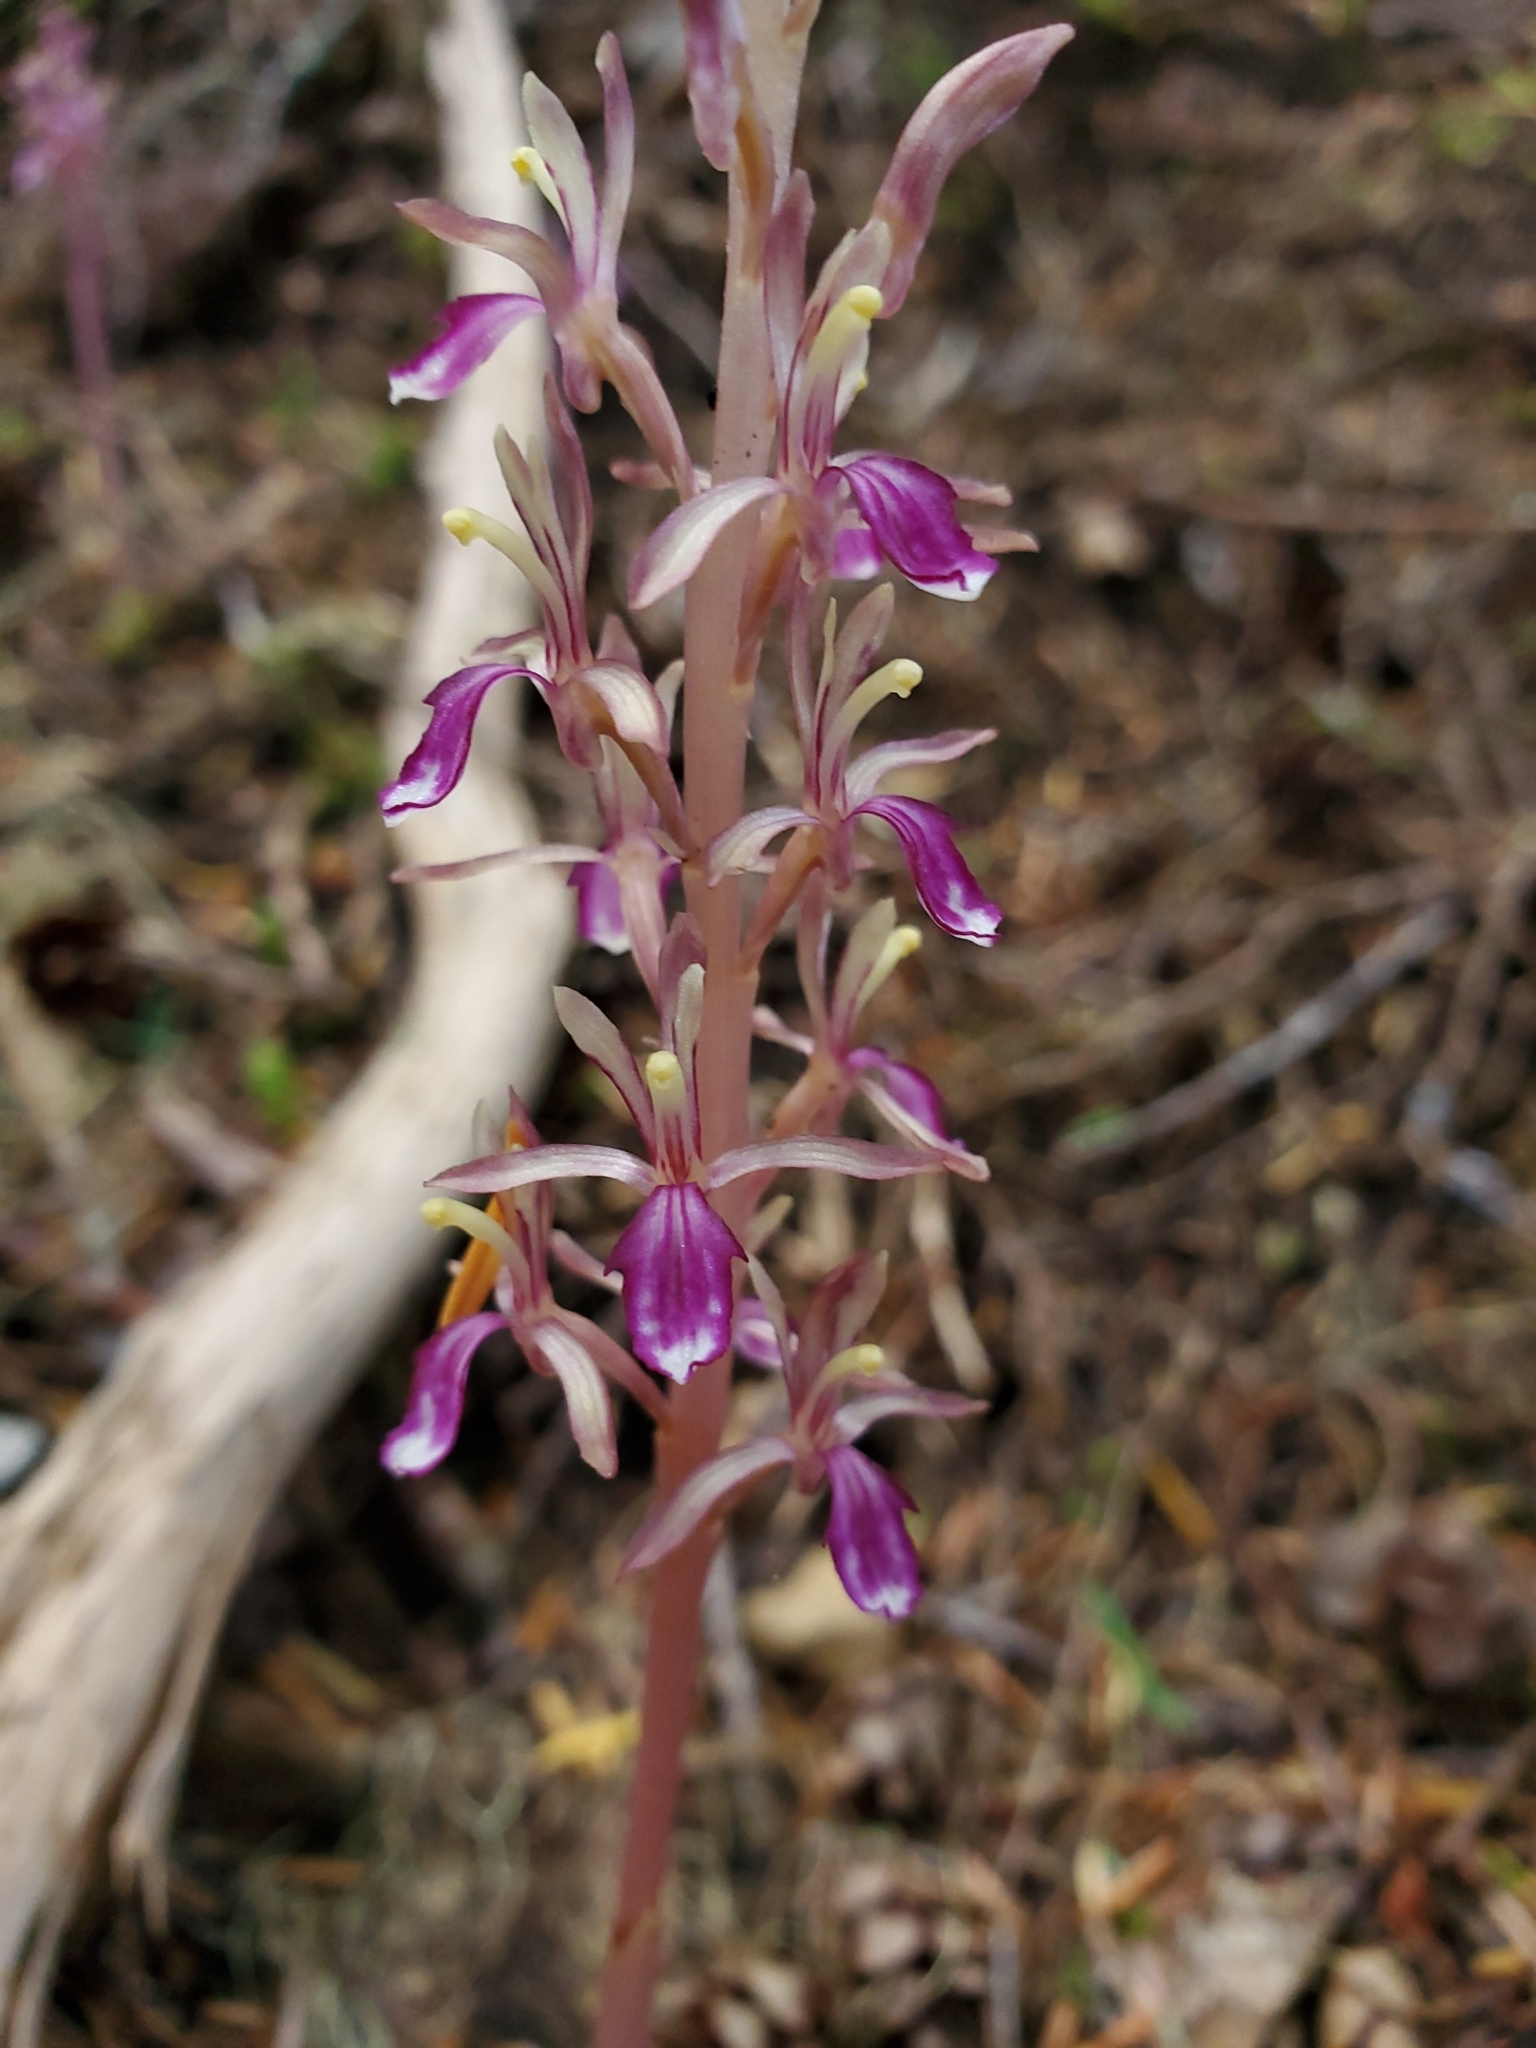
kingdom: Plantae
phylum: Tracheophyta
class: Liliopsida
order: Asparagales
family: Orchidaceae
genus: Corallorhiza
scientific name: Corallorhiza mertensiana
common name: Pacific coralroot
